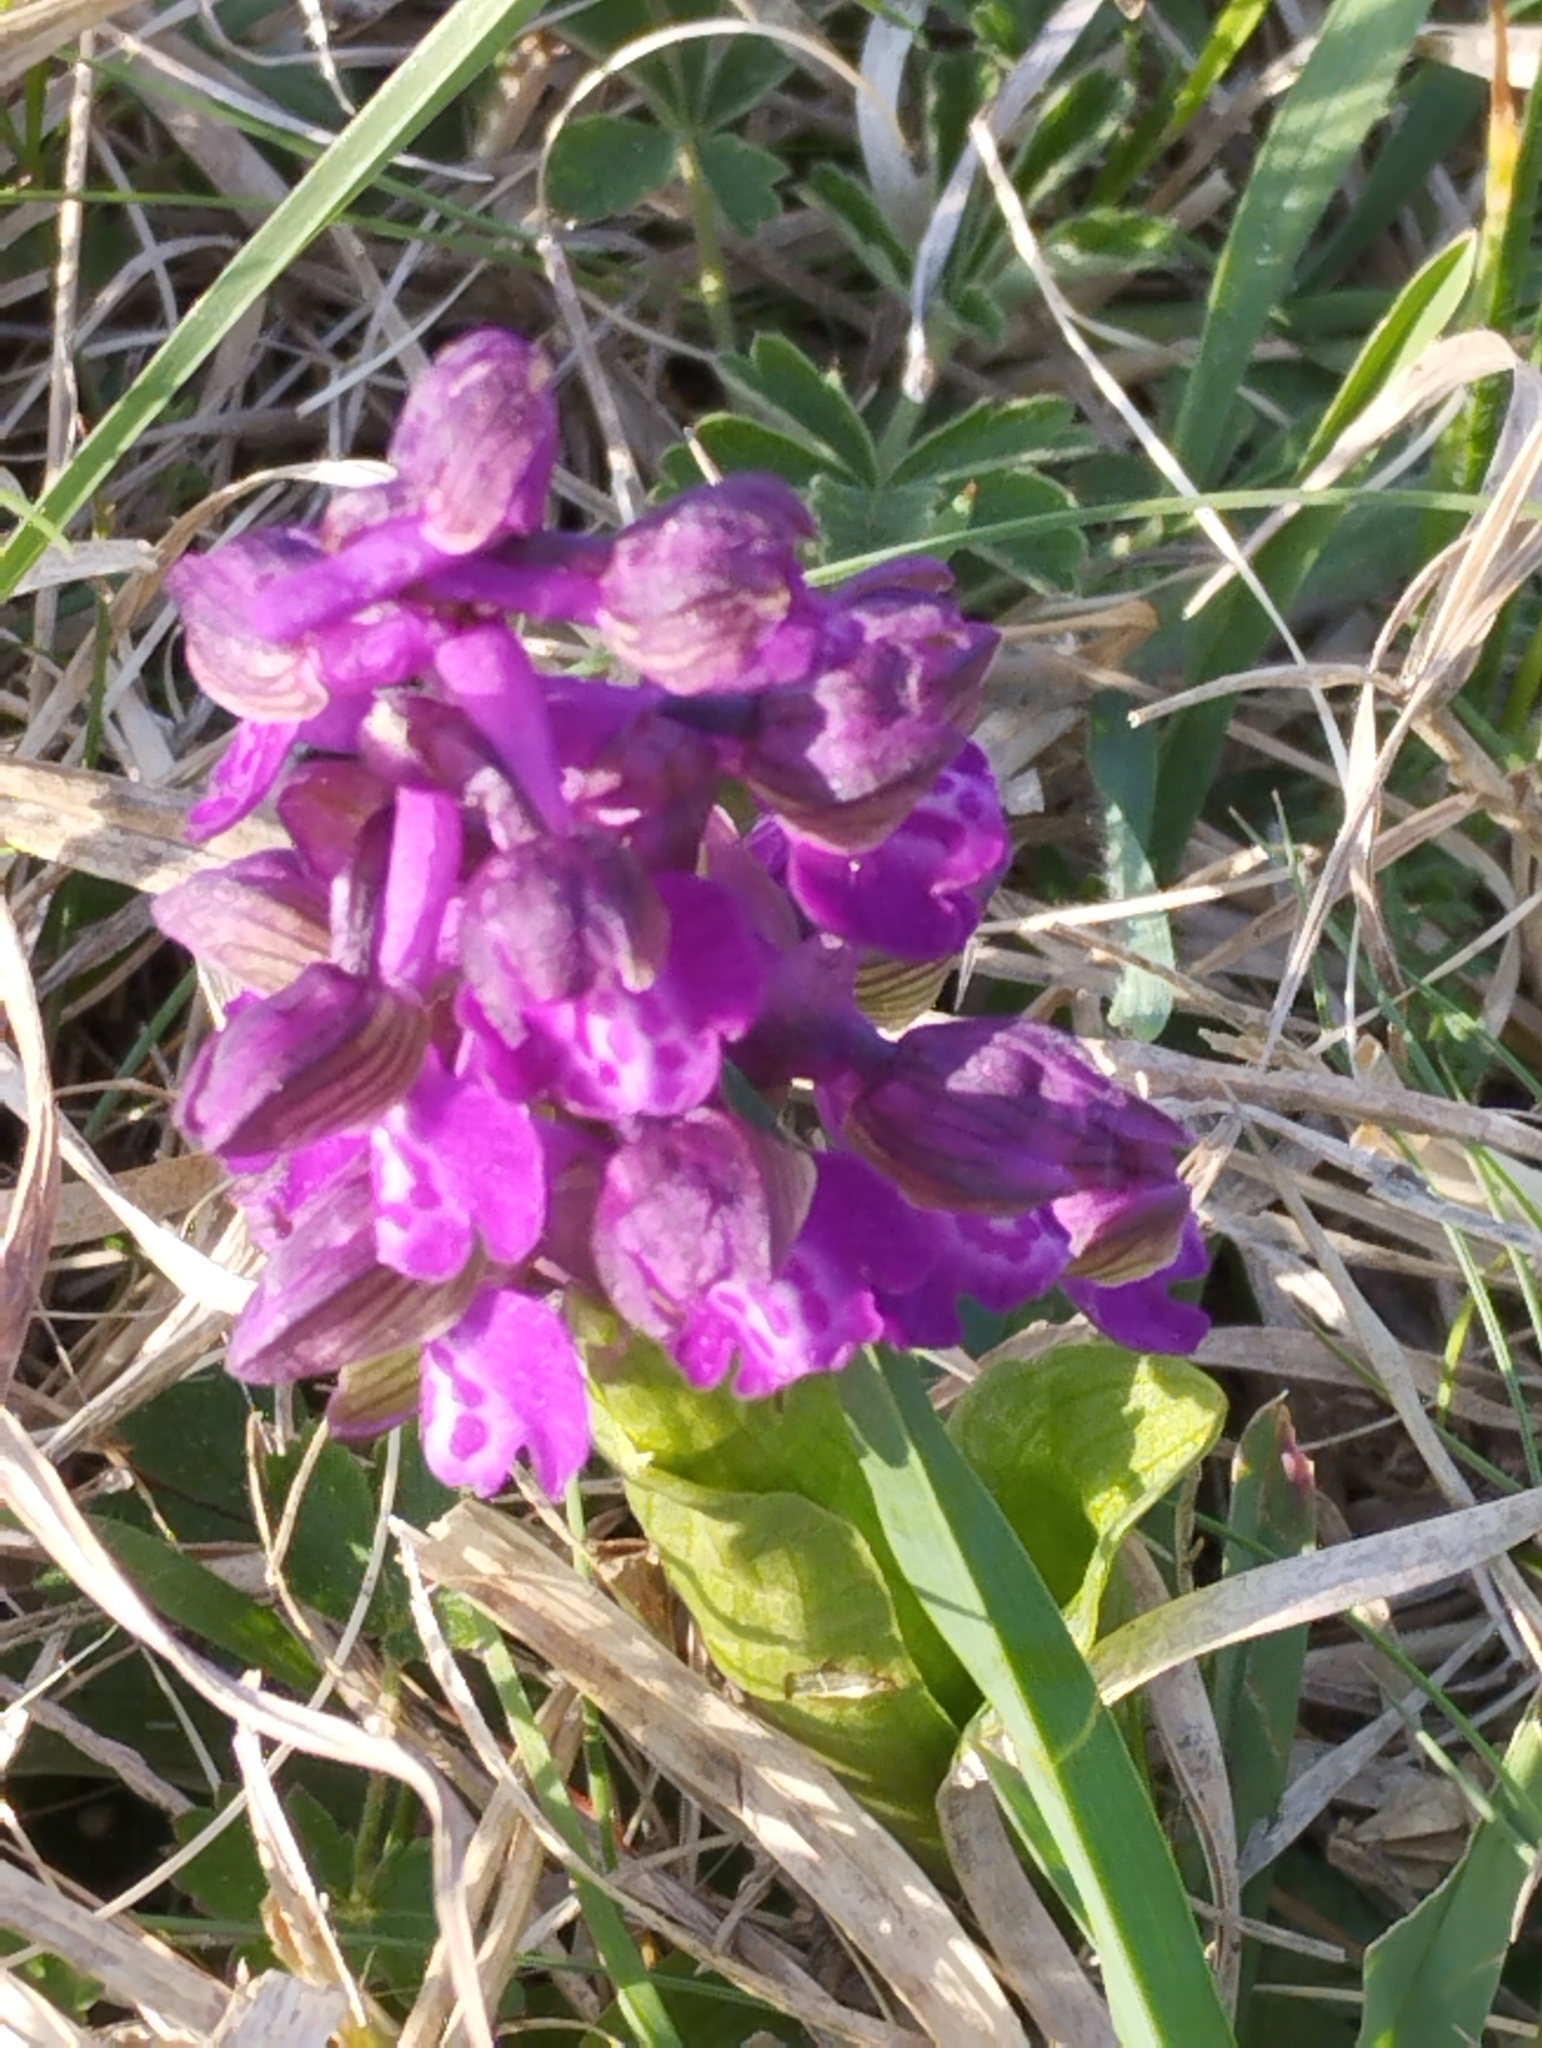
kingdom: Plantae
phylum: Tracheophyta
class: Liliopsida
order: Asparagales
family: Orchidaceae
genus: Anacamptis
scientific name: Anacamptis morio
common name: Green-winged orchid
